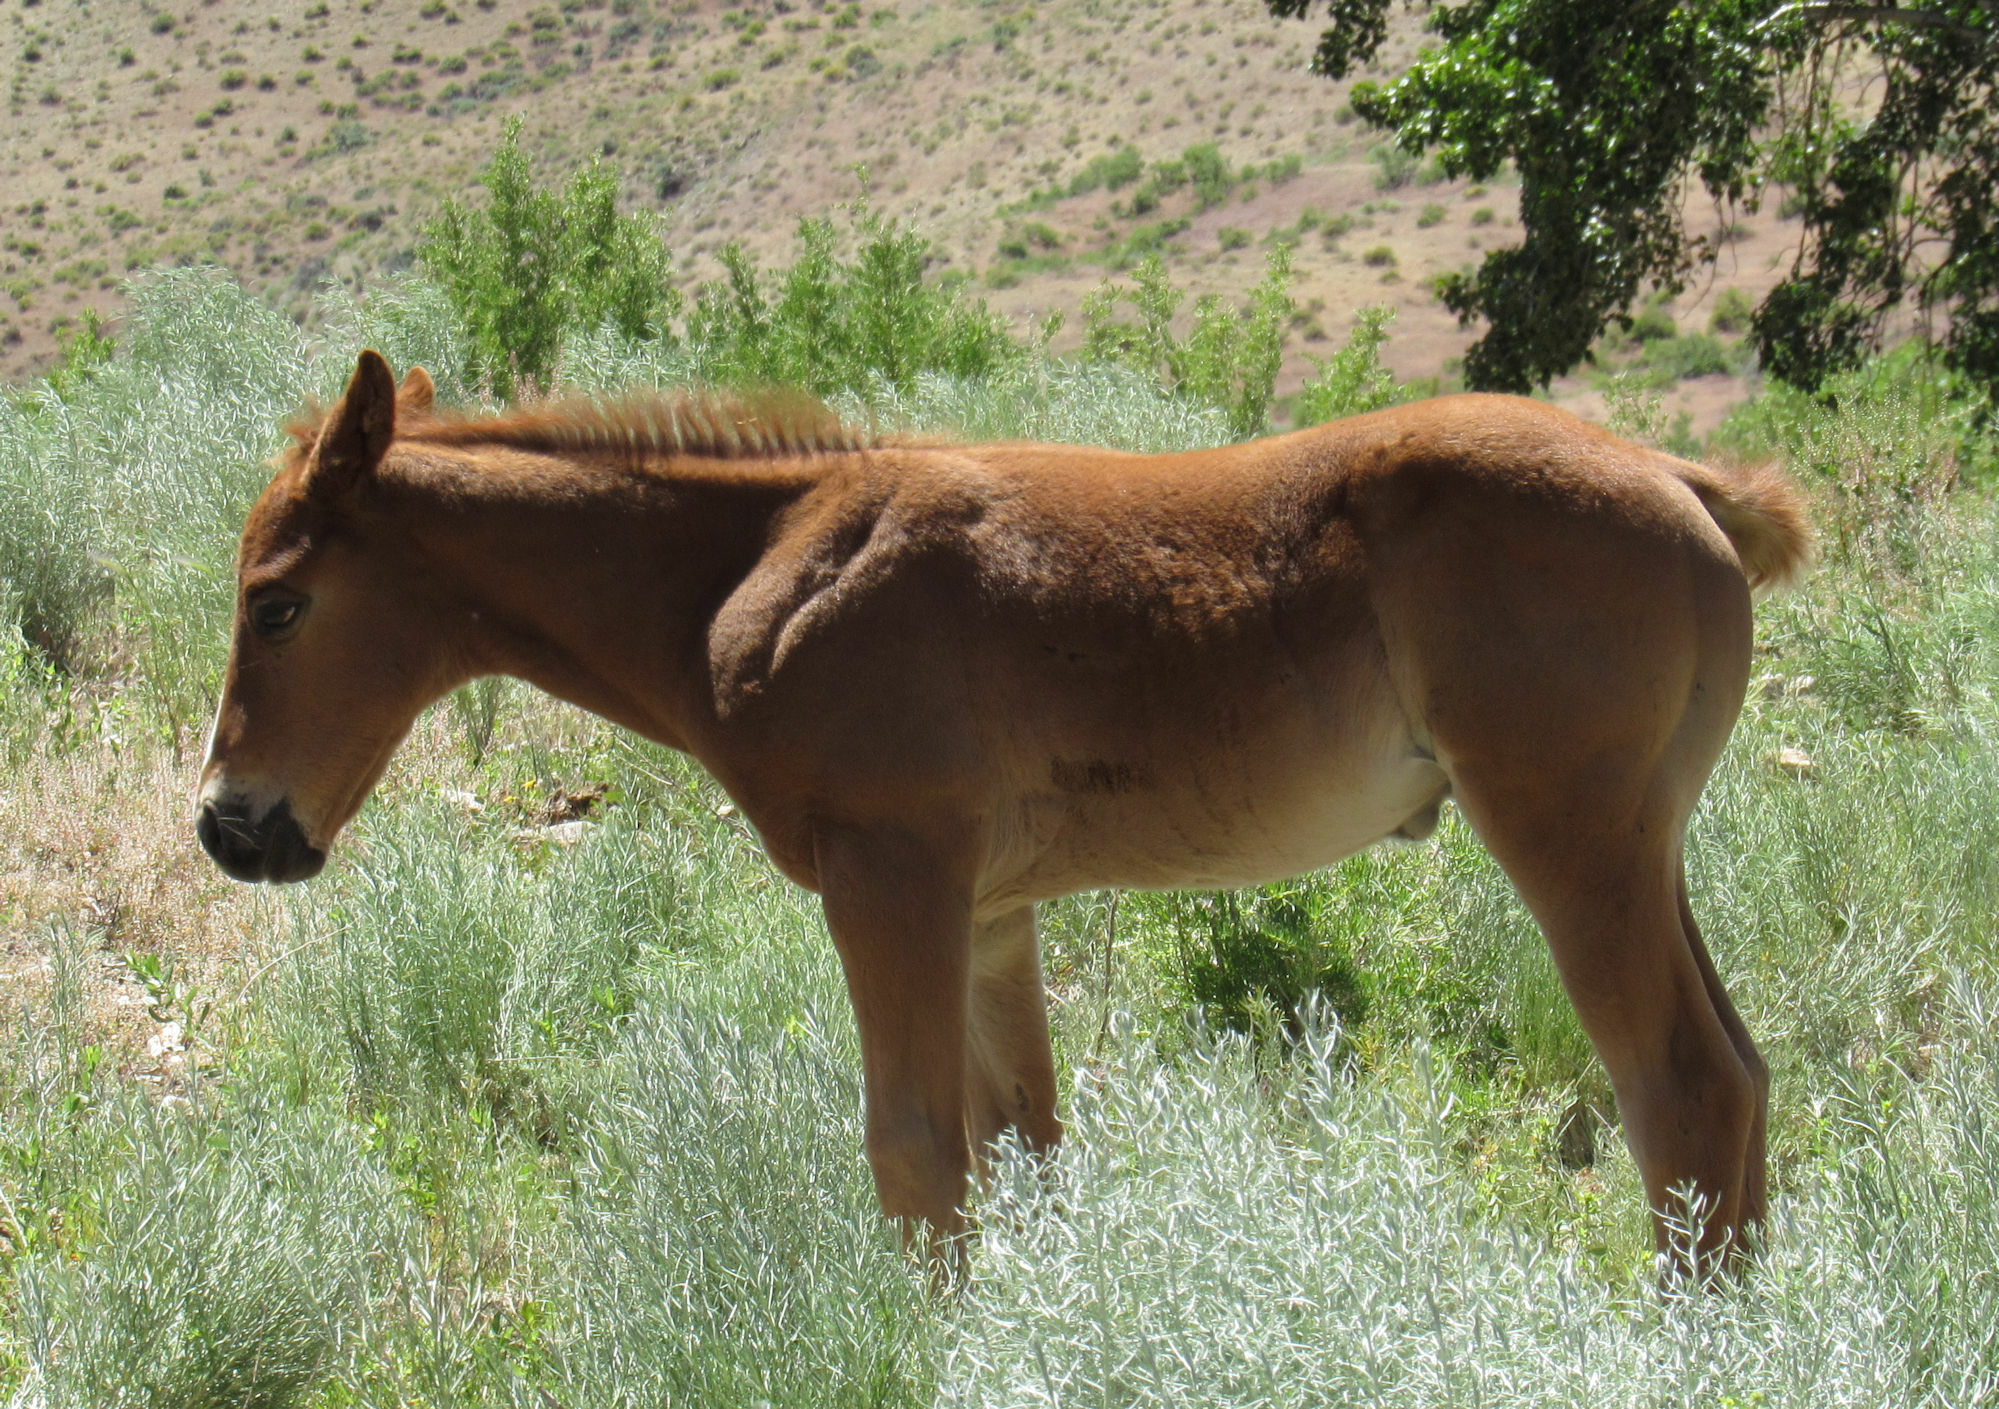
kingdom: Animalia
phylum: Chordata
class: Mammalia
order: Perissodactyla
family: Equidae
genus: Equus
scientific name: Equus caballus
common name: Horse
